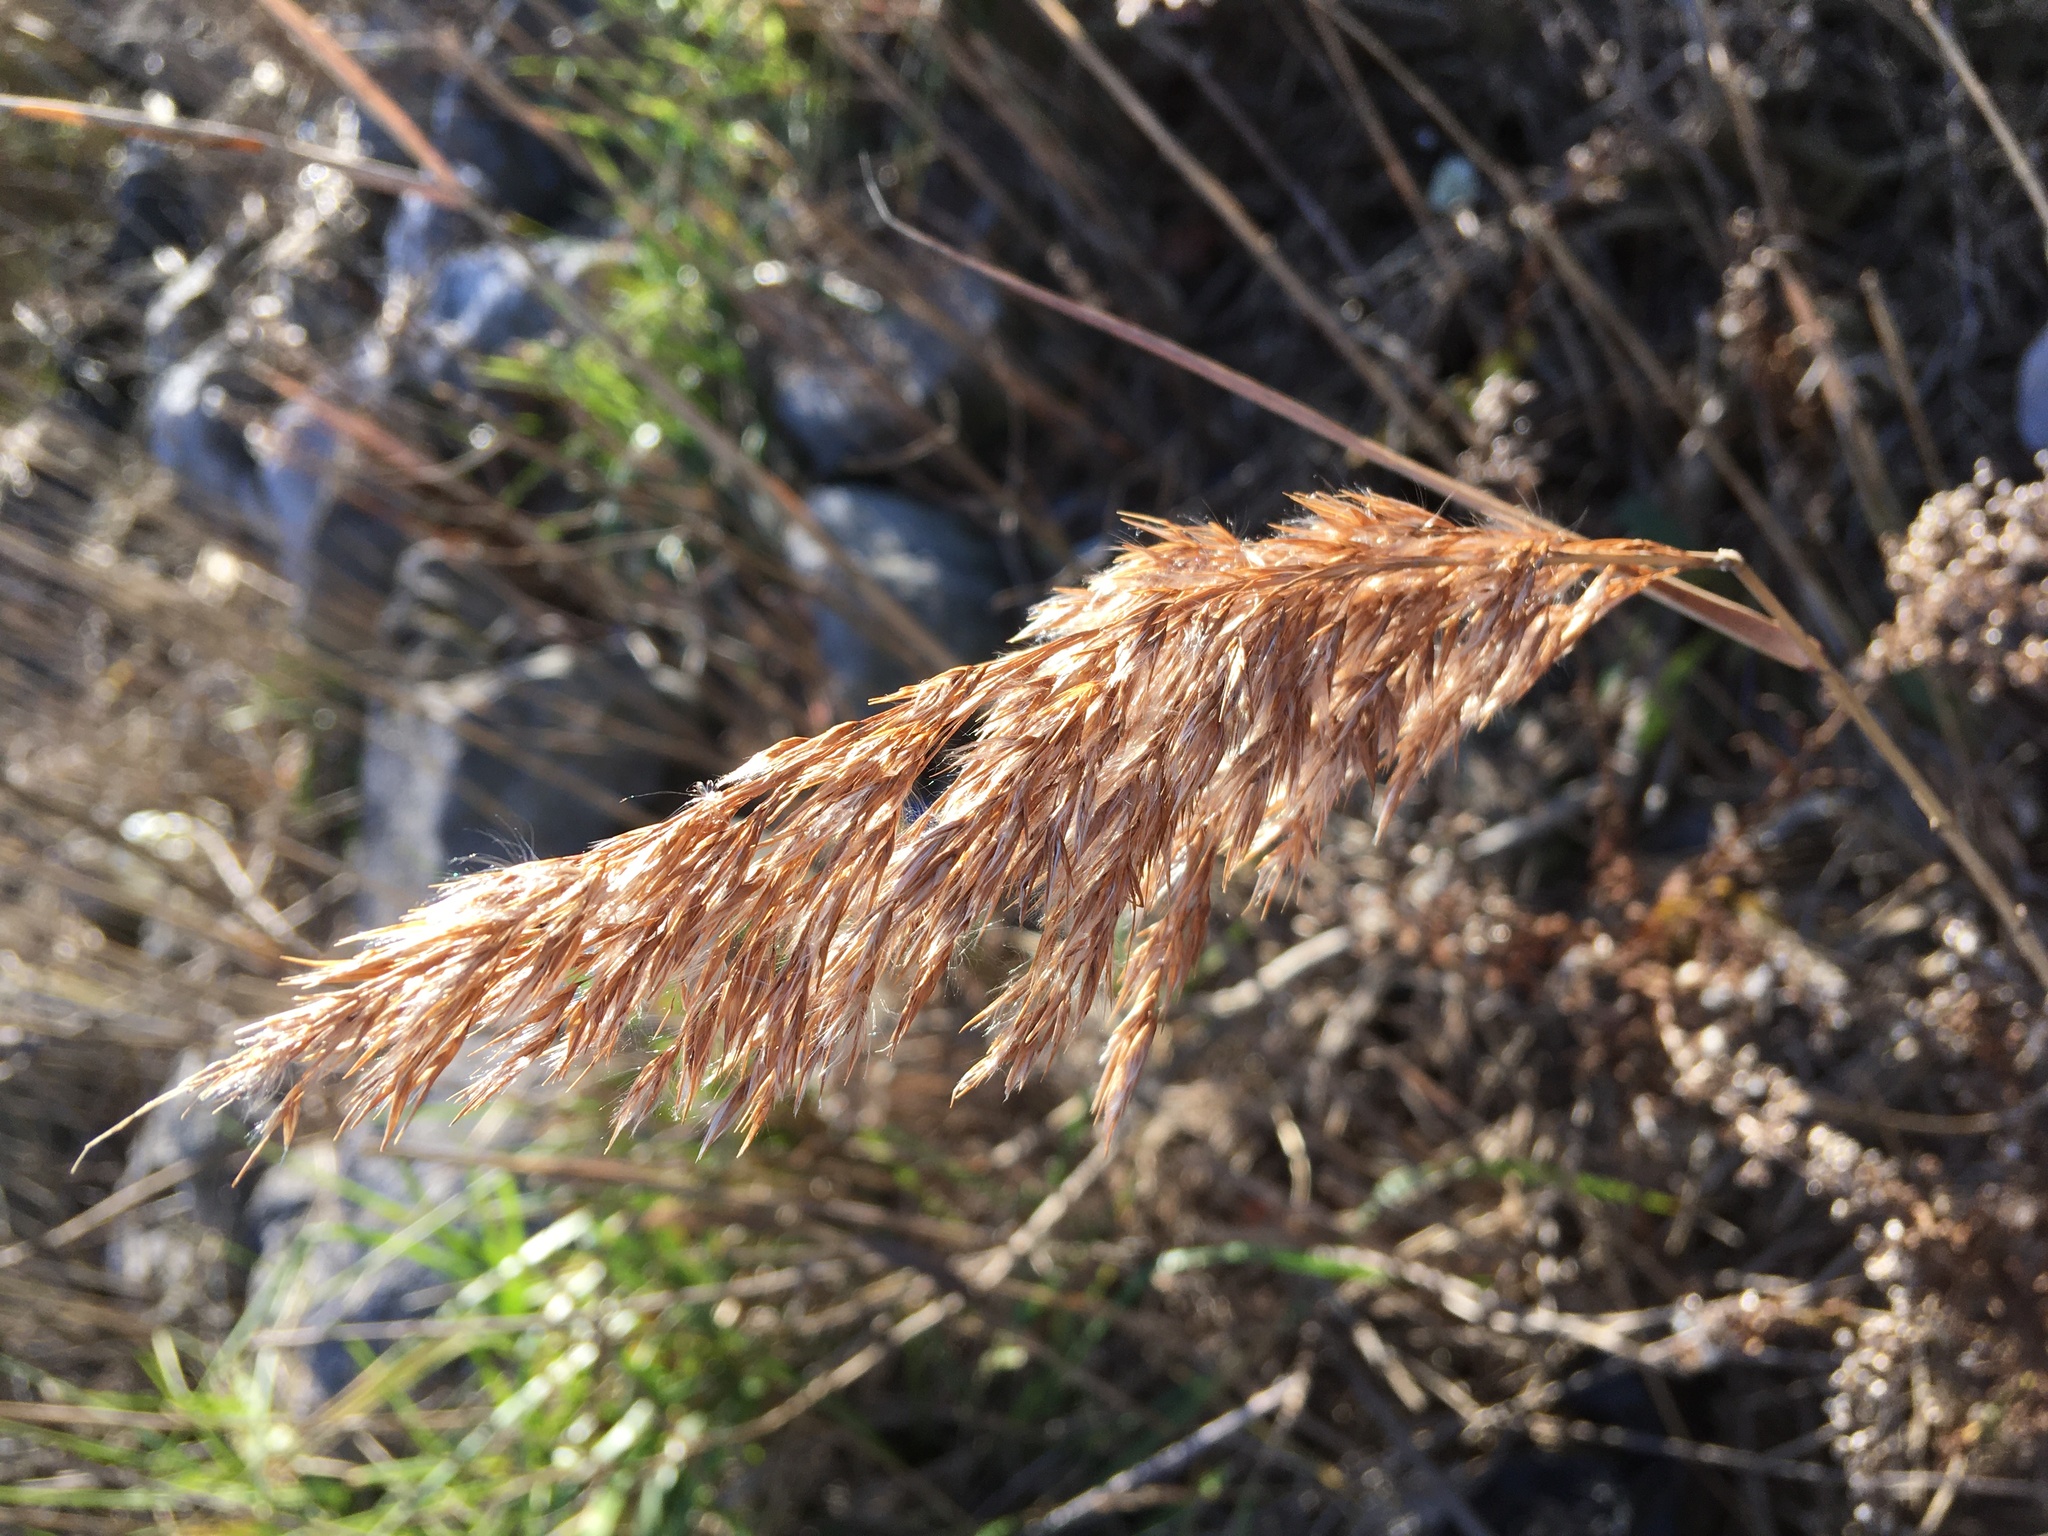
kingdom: Plantae
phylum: Tracheophyta
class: Liliopsida
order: Poales
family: Poaceae
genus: Phragmites
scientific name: Phragmites australis
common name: Common reed
